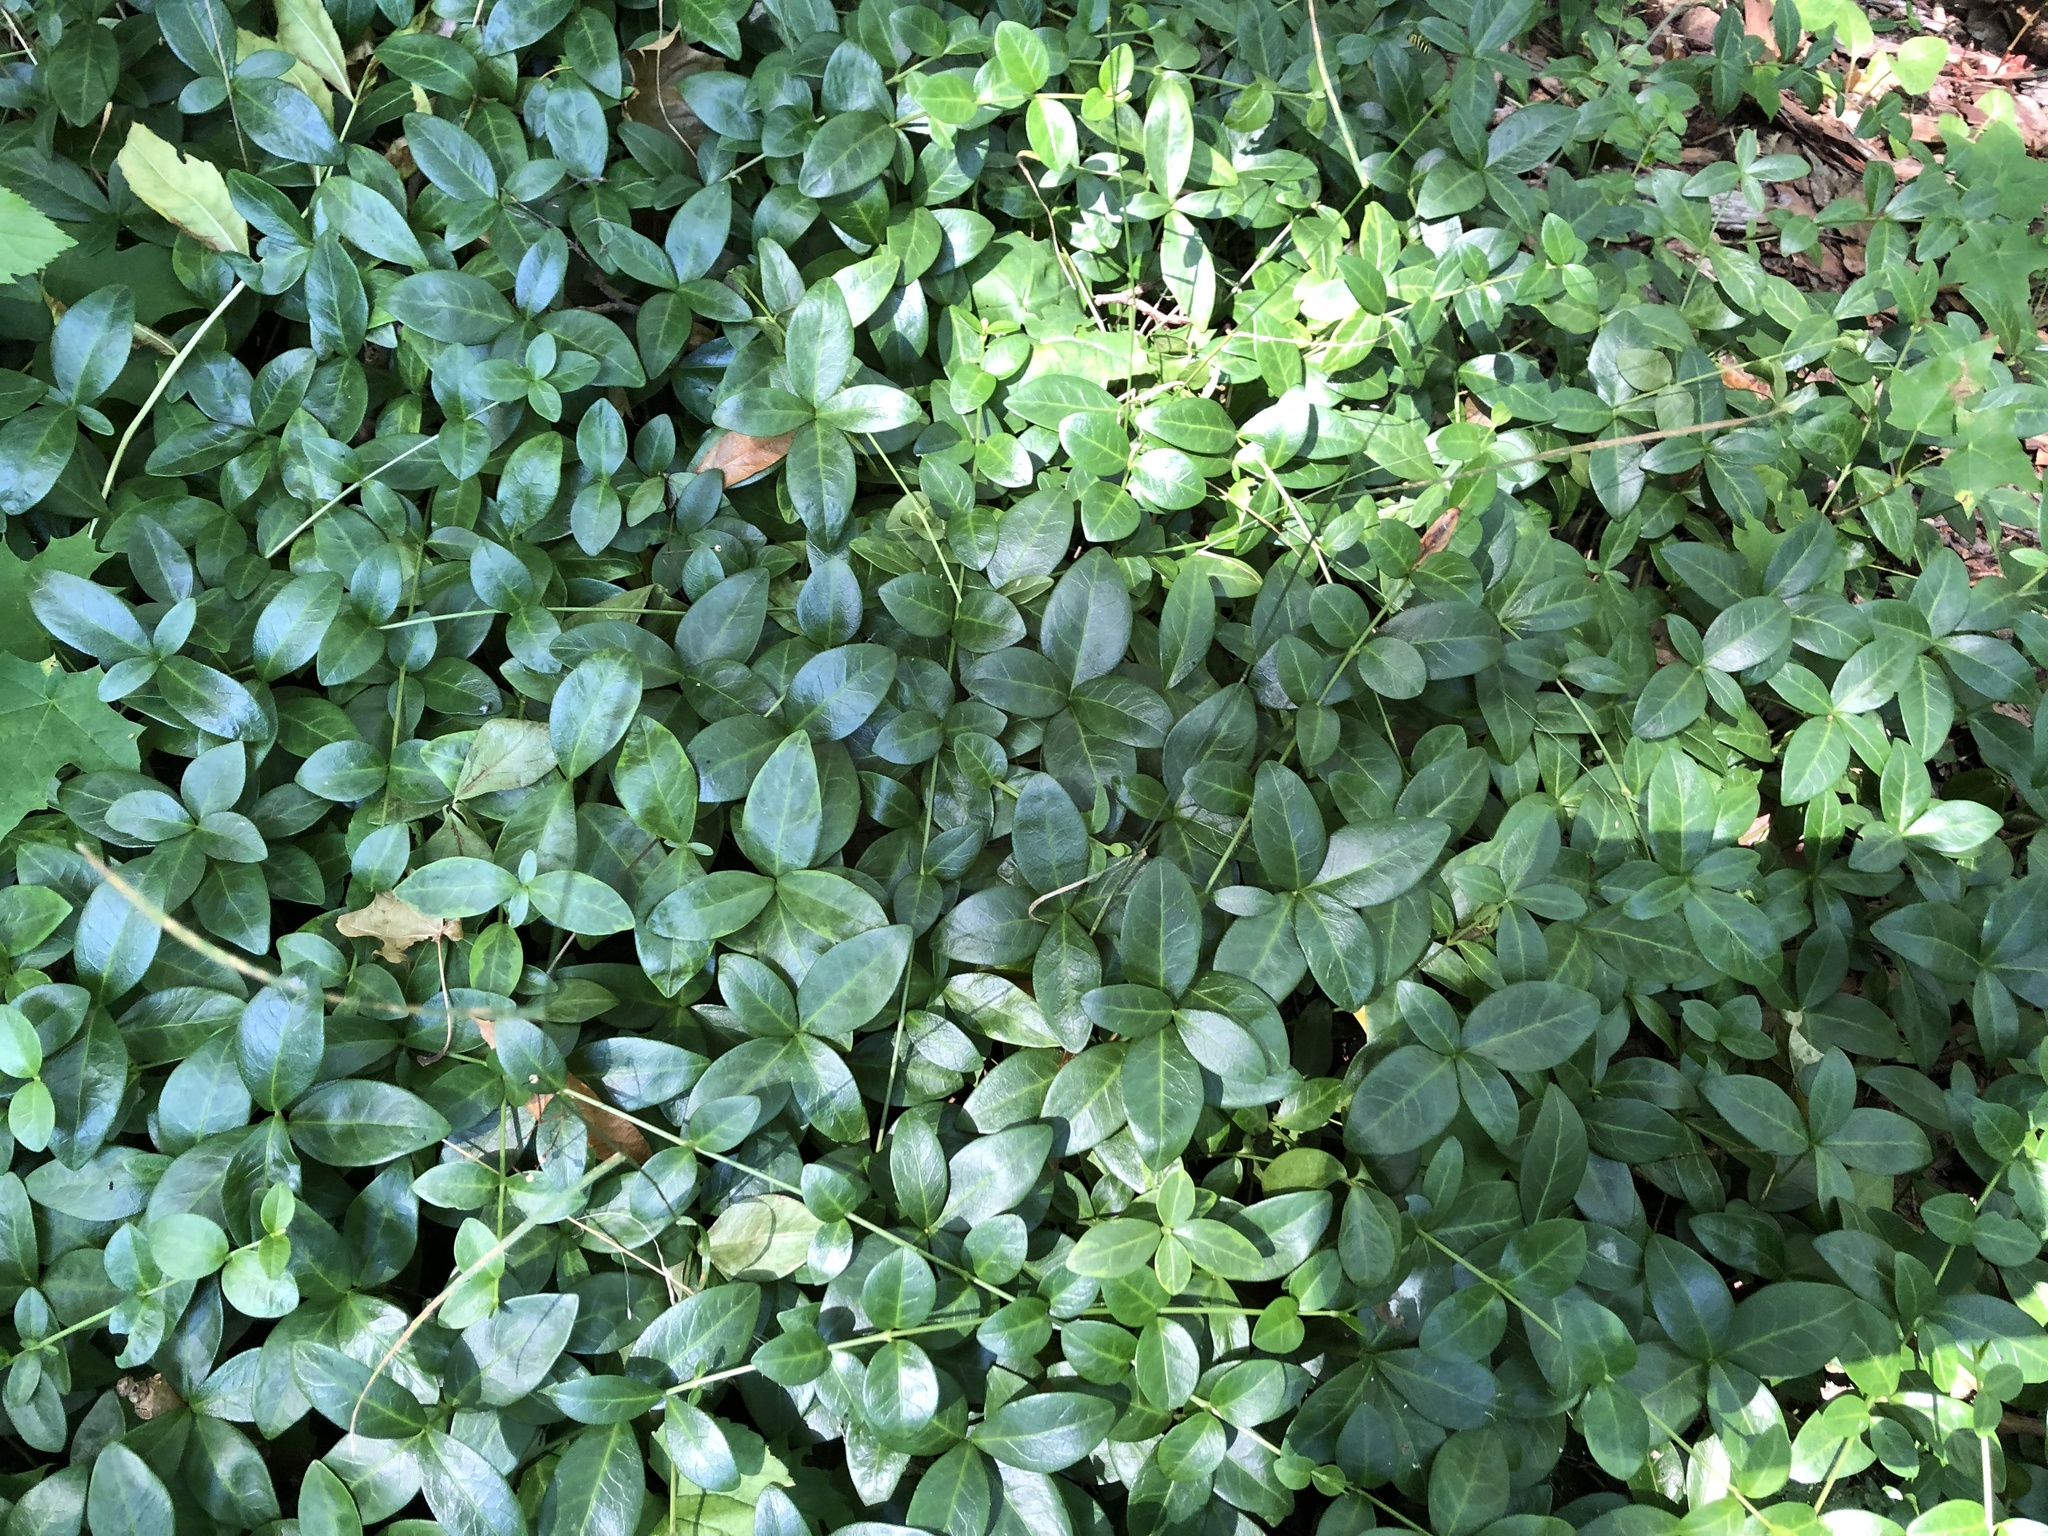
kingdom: Plantae
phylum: Tracheophyta
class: Magnoliopsida
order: Gentianales
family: Apocynaceae
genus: Vinca
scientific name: Vinca minor
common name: Lesser periwinkle
